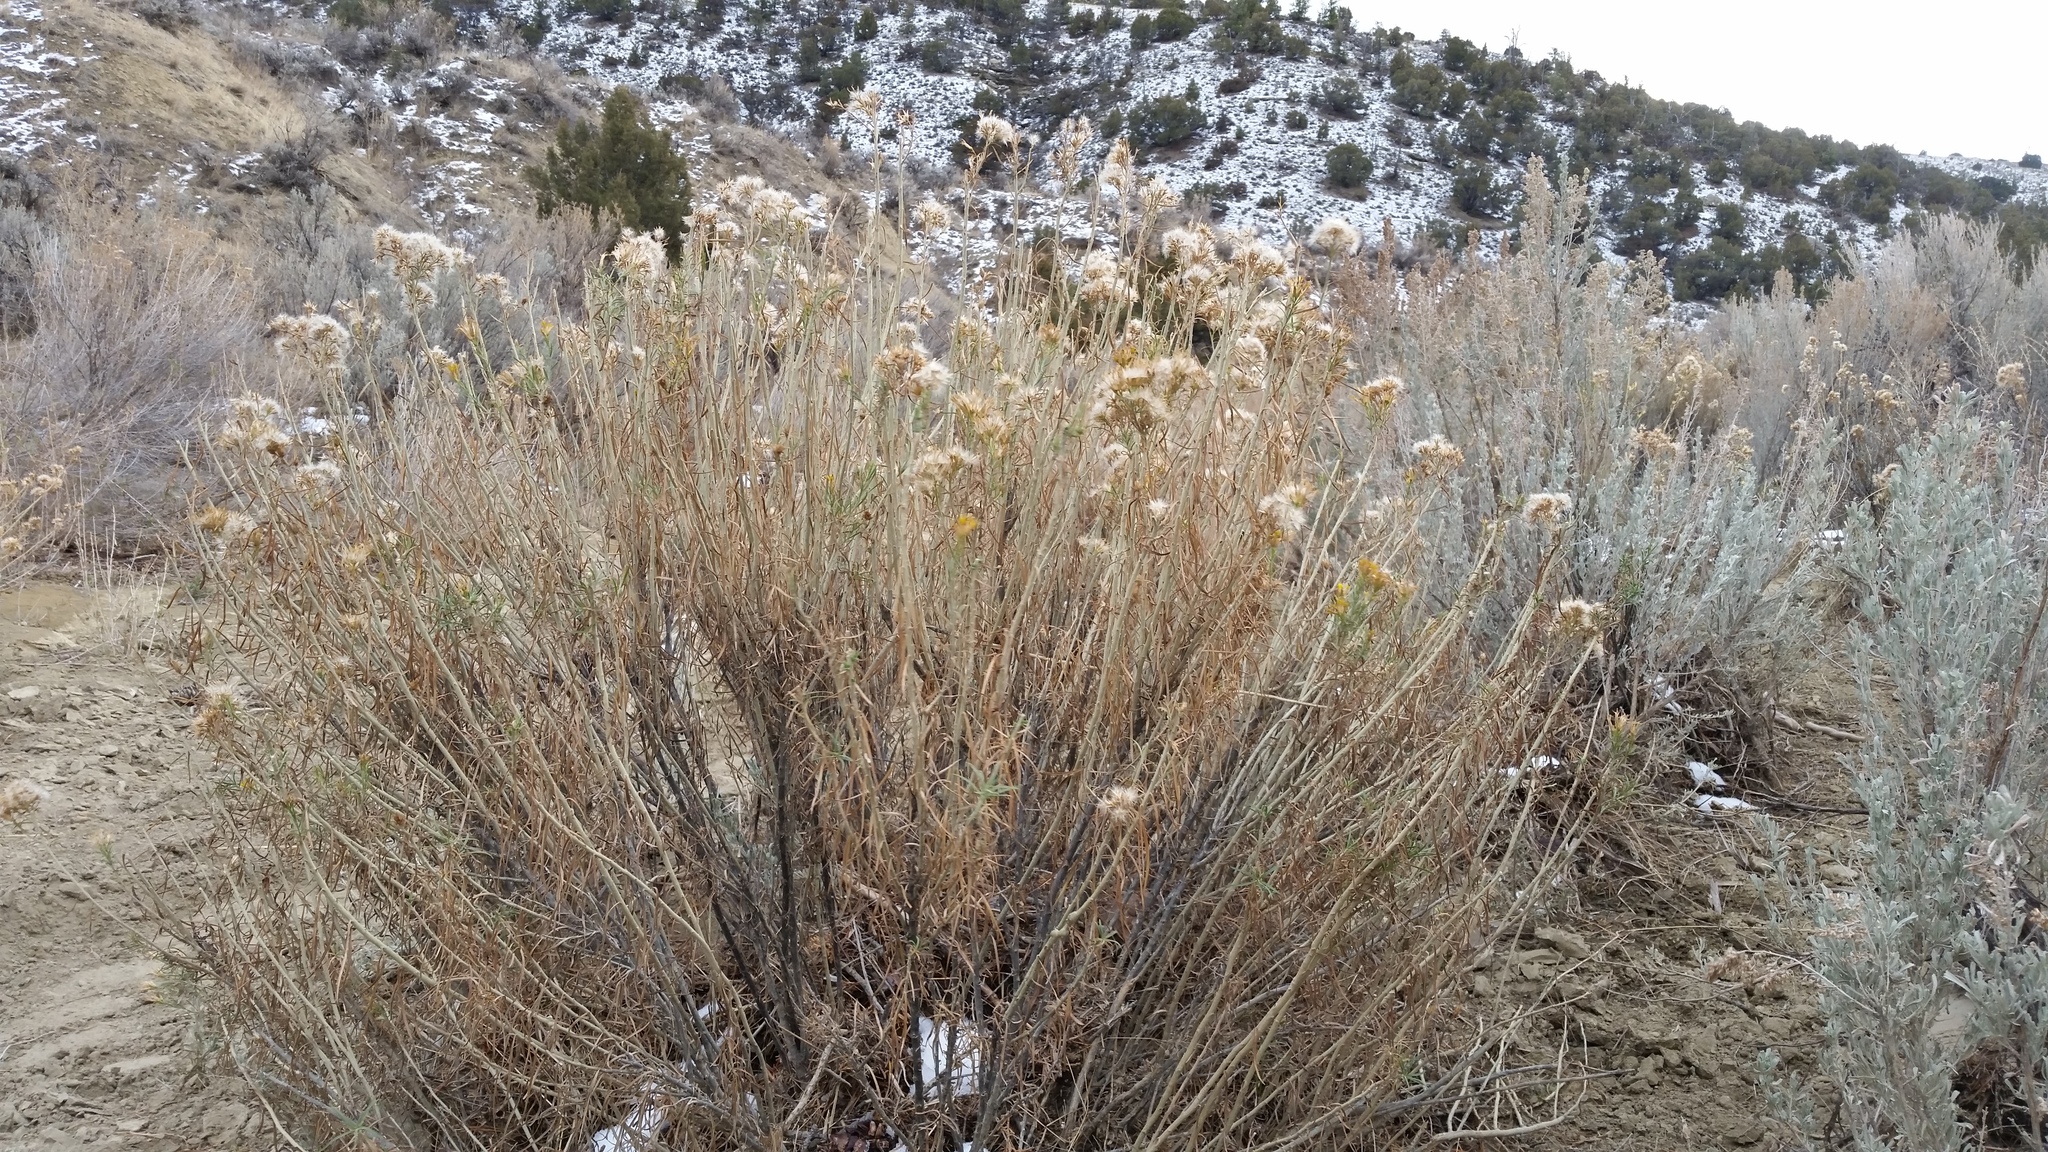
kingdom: Plantae
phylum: Tracheophyta
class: Magnoliopsida
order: Asterales
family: Asteraceae
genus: Ericameria
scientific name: Ericameria nauseosa
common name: Rubber rabbitbrush
